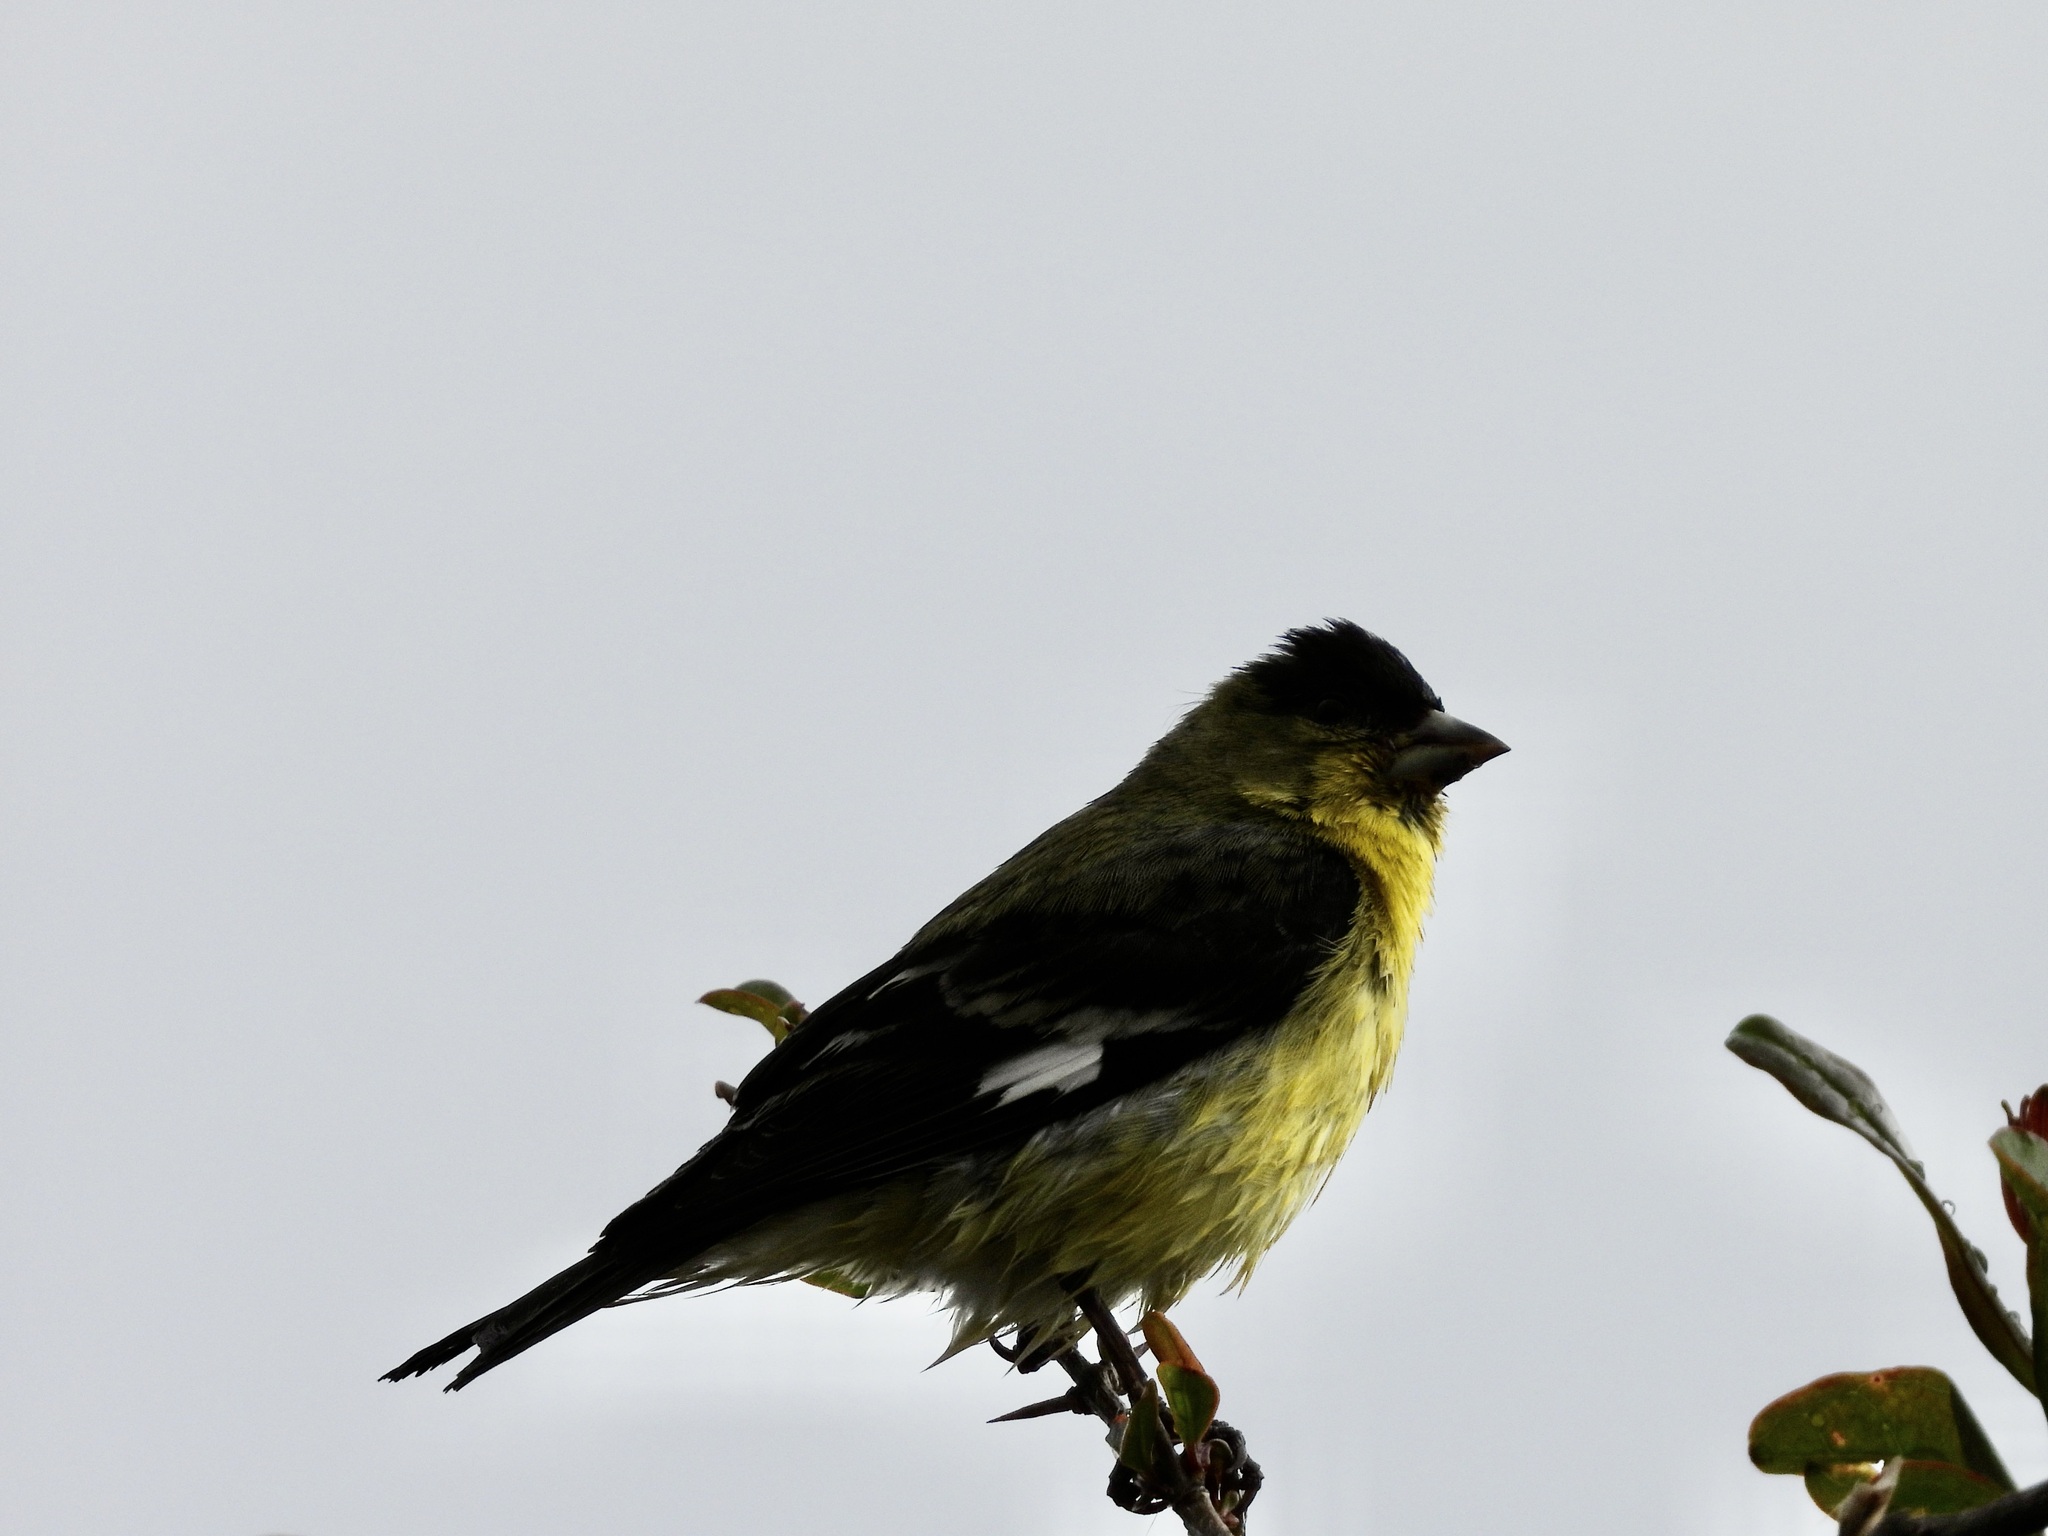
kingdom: Animalia
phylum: Chordata
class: Aves
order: Passeriformes
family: Fringillidae
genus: Spinus
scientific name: Spinus psaltria
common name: Lesser goldfinch
